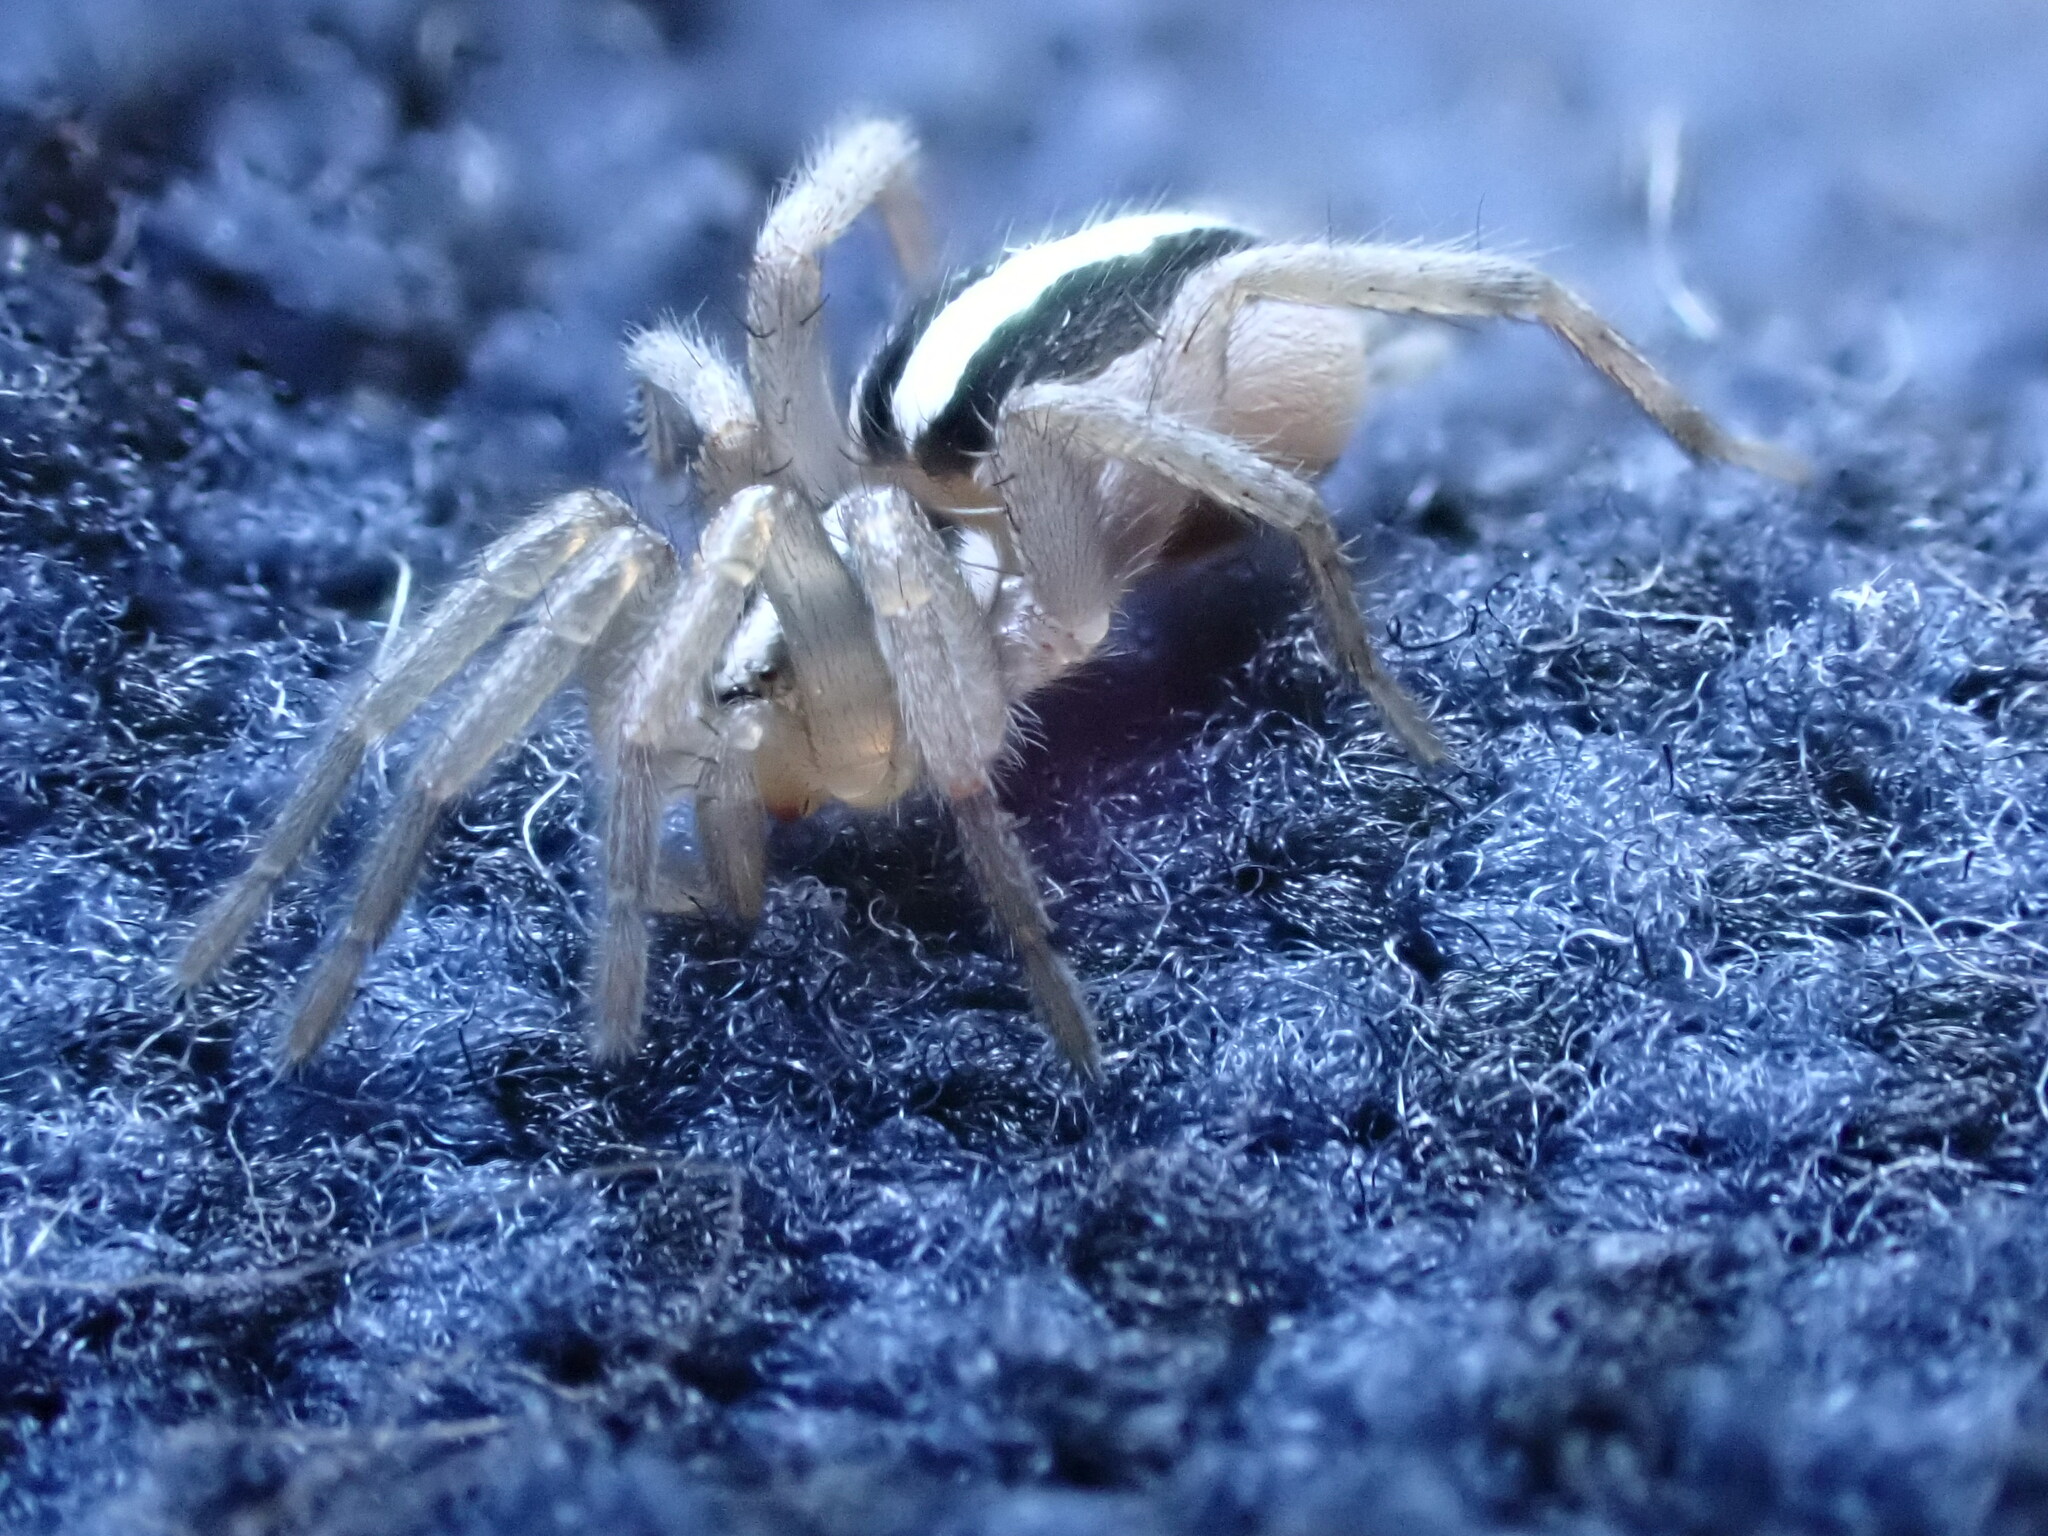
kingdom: Animalia
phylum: Arthropoda
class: Arachnida
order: Araneae
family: Gnaphosidae
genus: Cesonia
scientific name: Cesonia bilineata
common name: Two-lined stealthy ground spider
